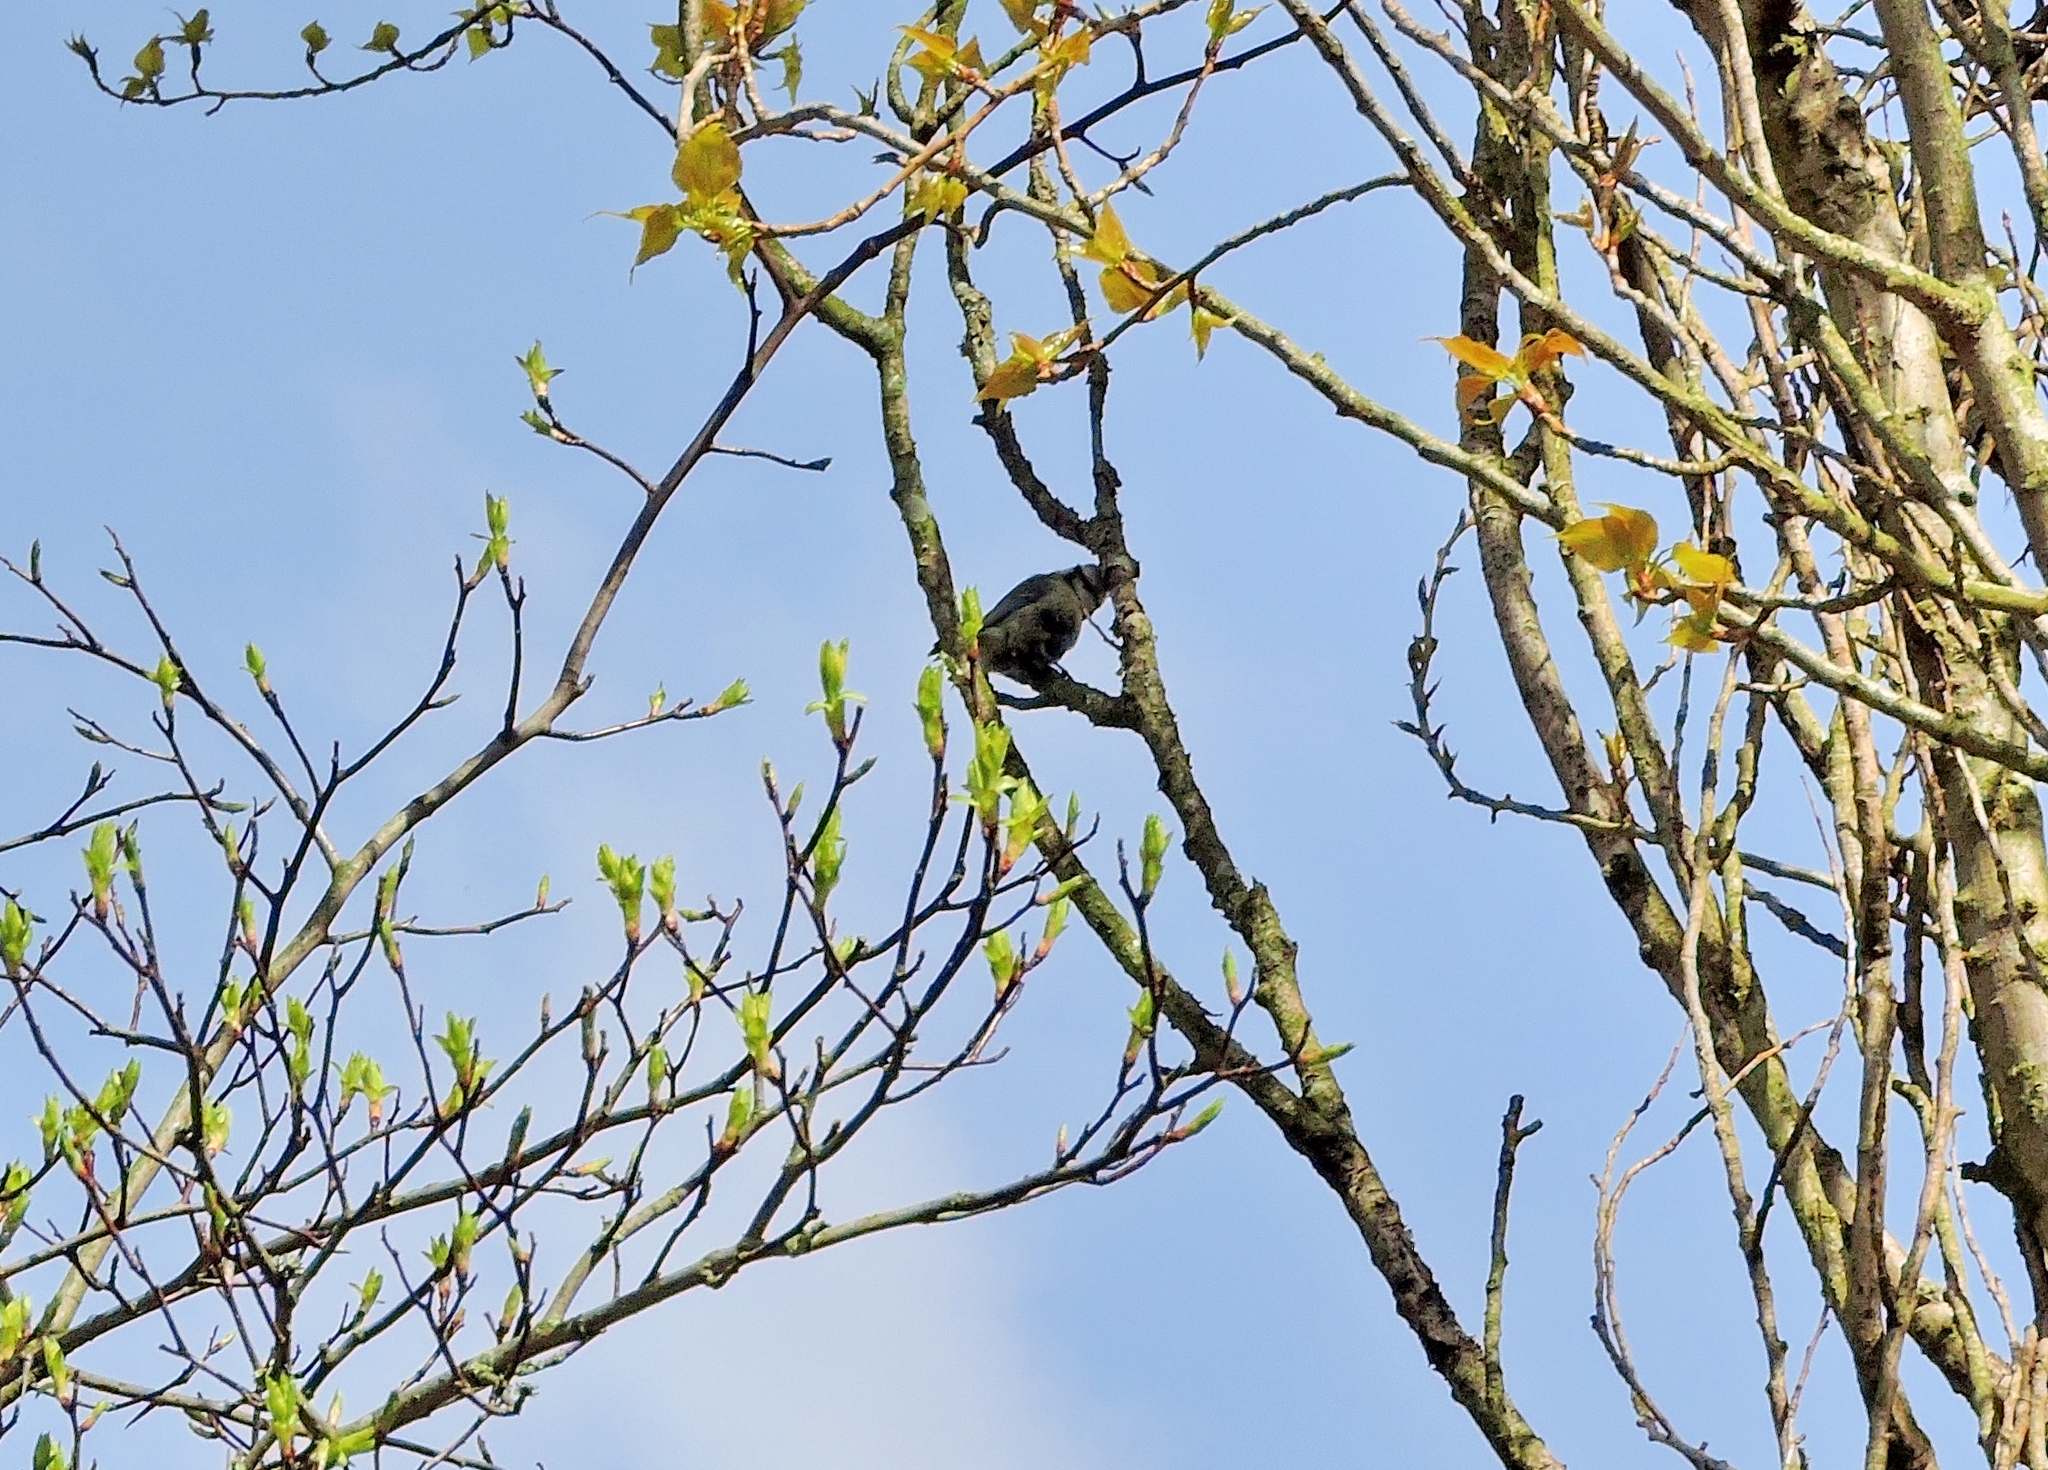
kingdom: Animalia
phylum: Chordata
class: Aves
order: Passeriformes
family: Paridae
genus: Cyanistes
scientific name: Cyanistes caeruleus
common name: Eurasian blue tit
